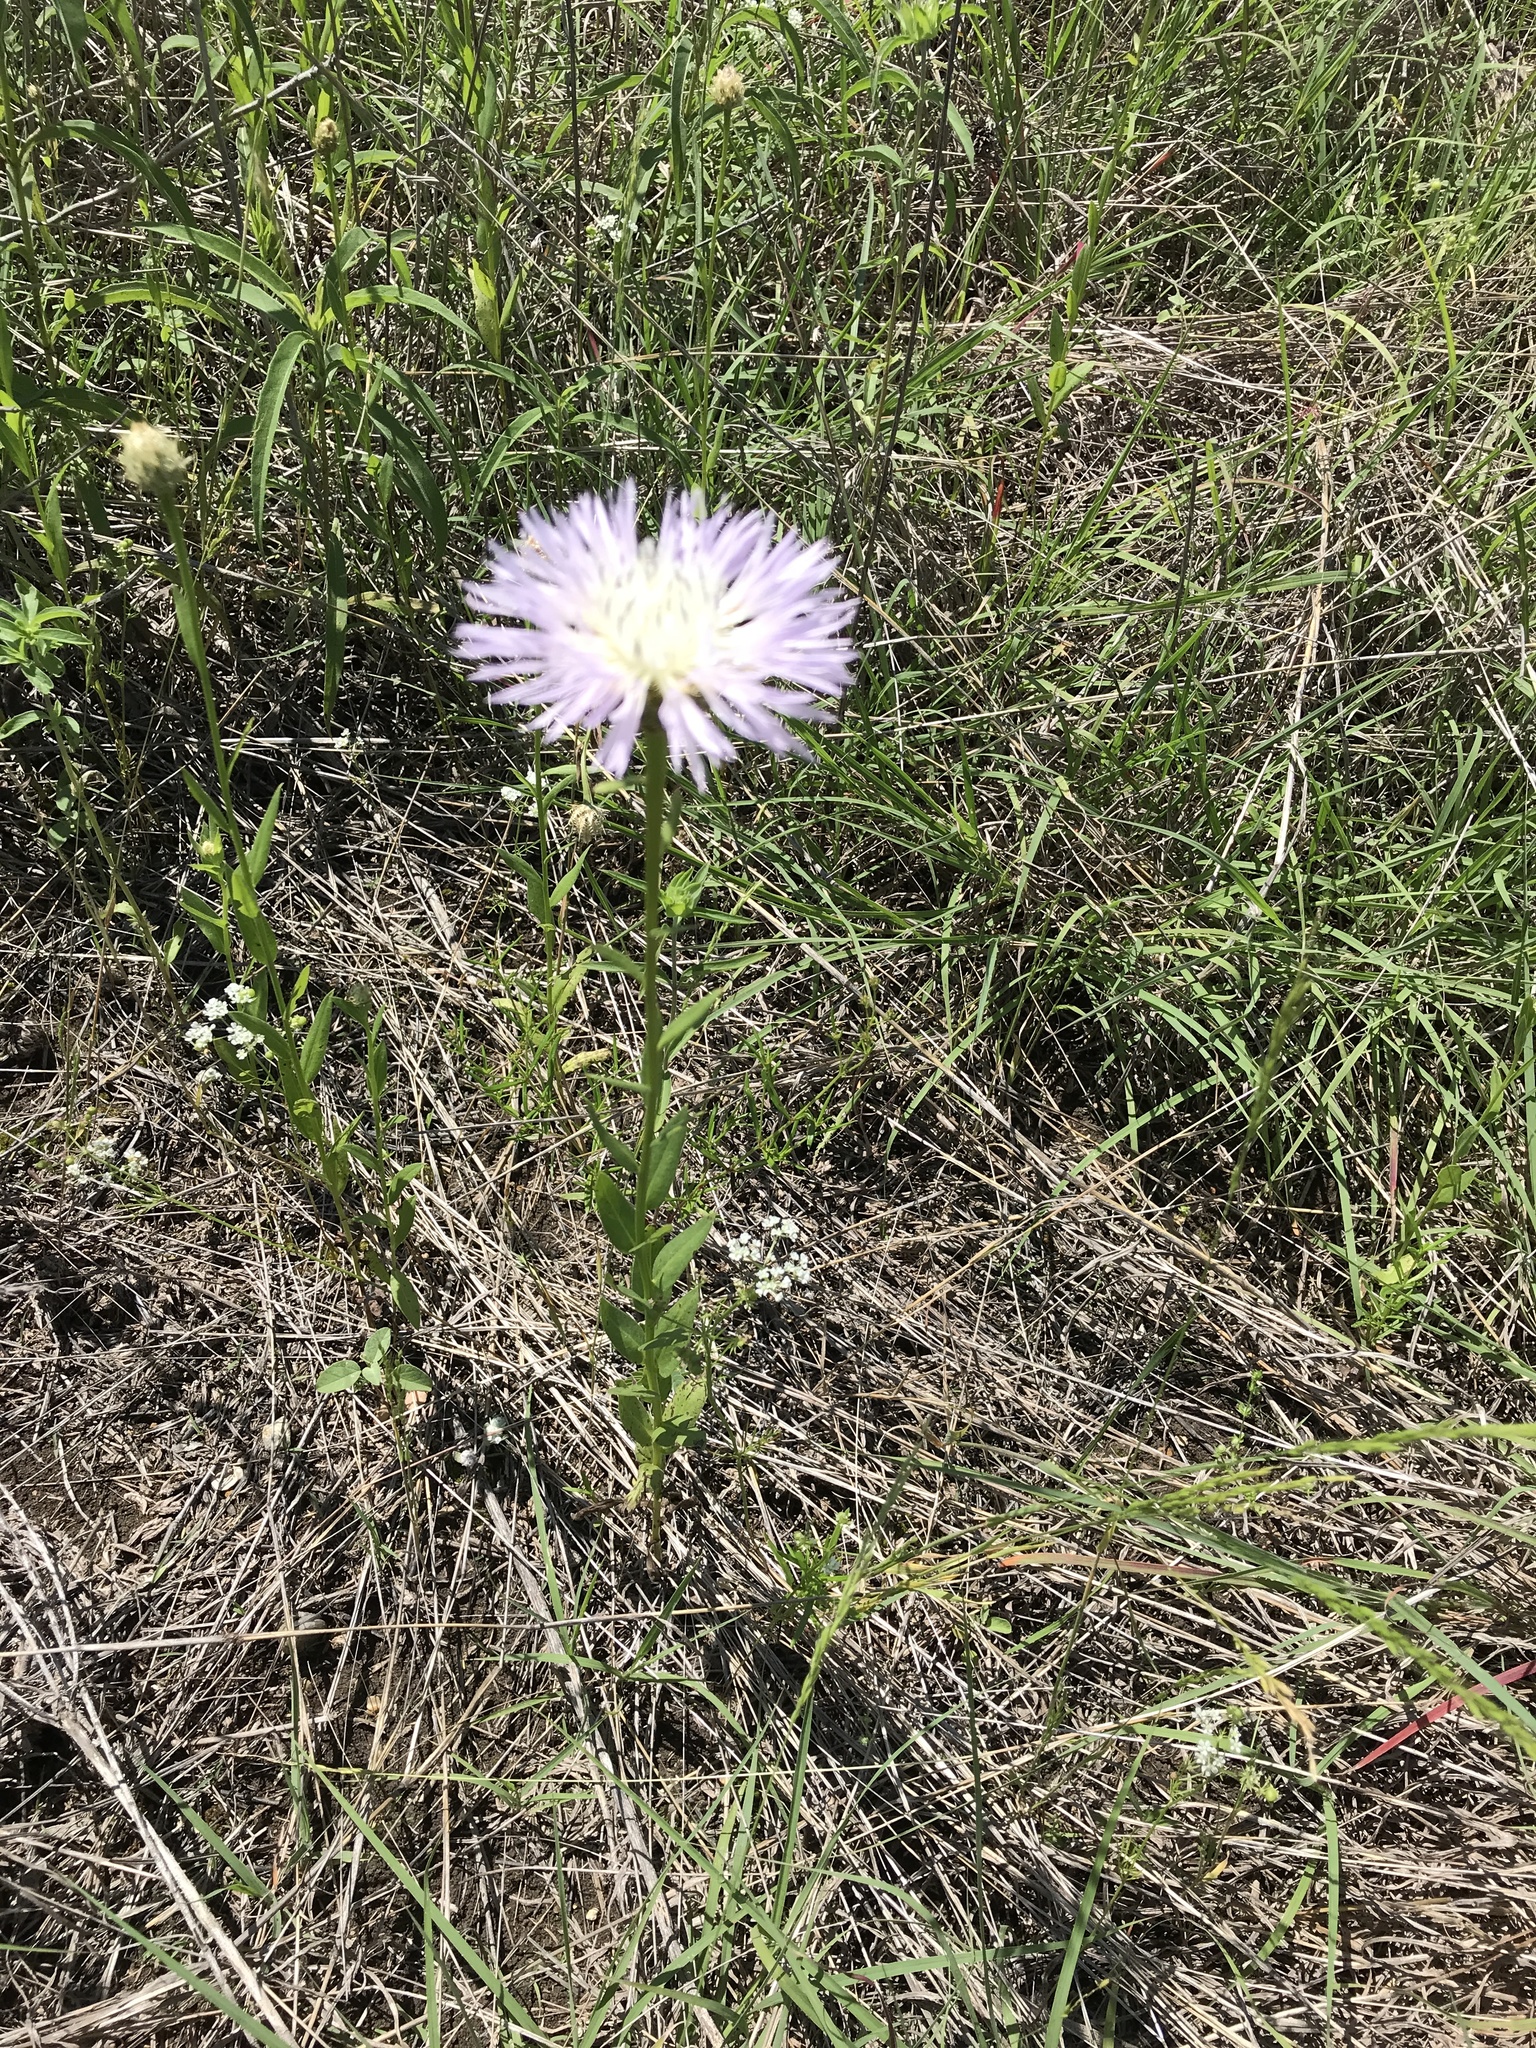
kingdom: Plantae
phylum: Tracheophyta
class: Magnoliopsida
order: Asterales
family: Asteraceae
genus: Plectocephalus
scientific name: Plectocephalus americanus
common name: American basket-flower
